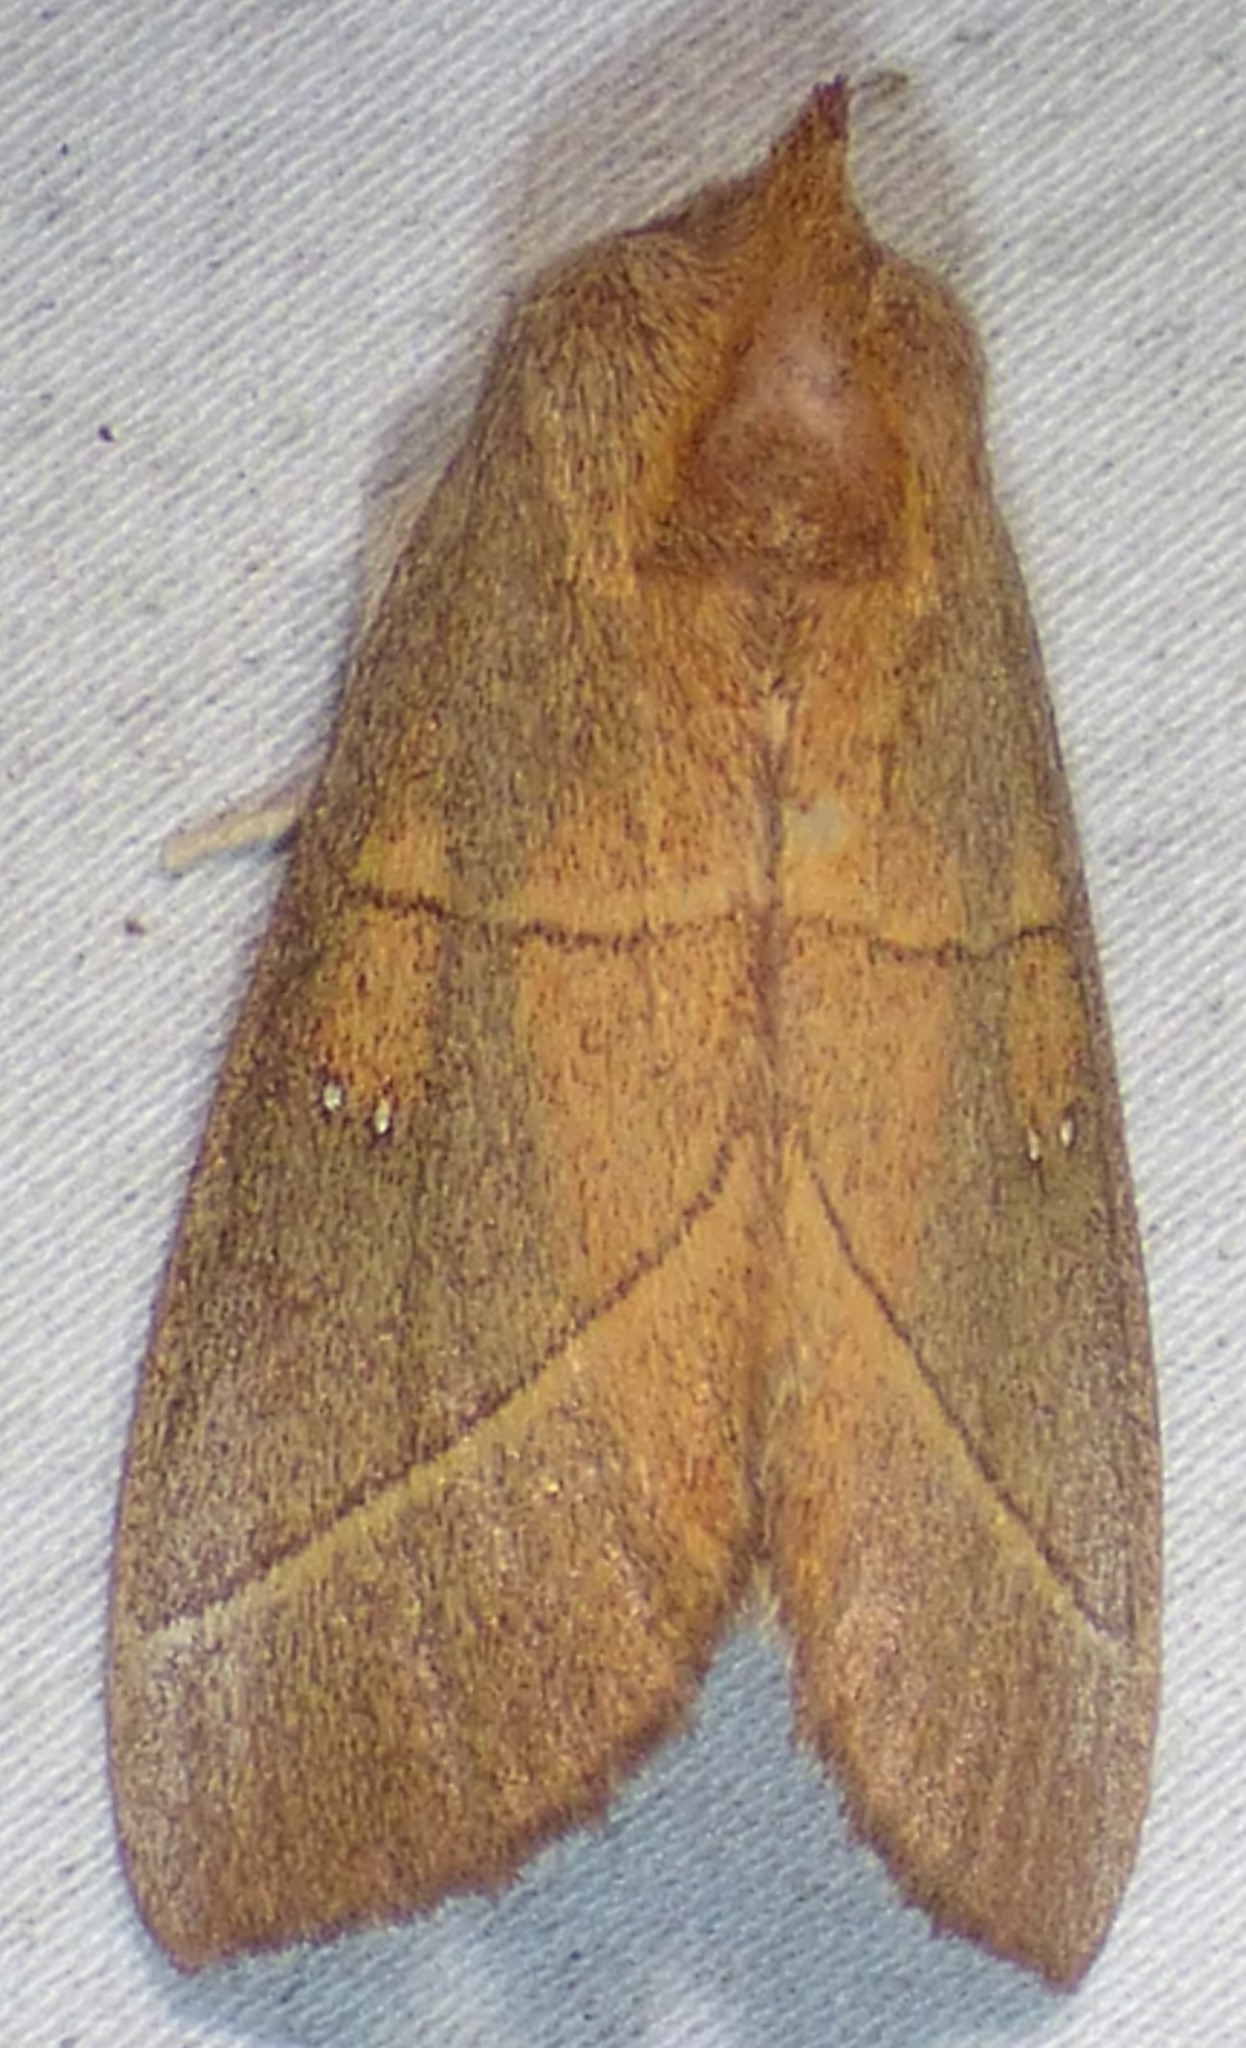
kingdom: Animalia
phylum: Arthropoda
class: Insecta
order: Lepidoptera
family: Notodontidae
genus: Nadata
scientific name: Nadata gibbosa
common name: White-dotted prominent
